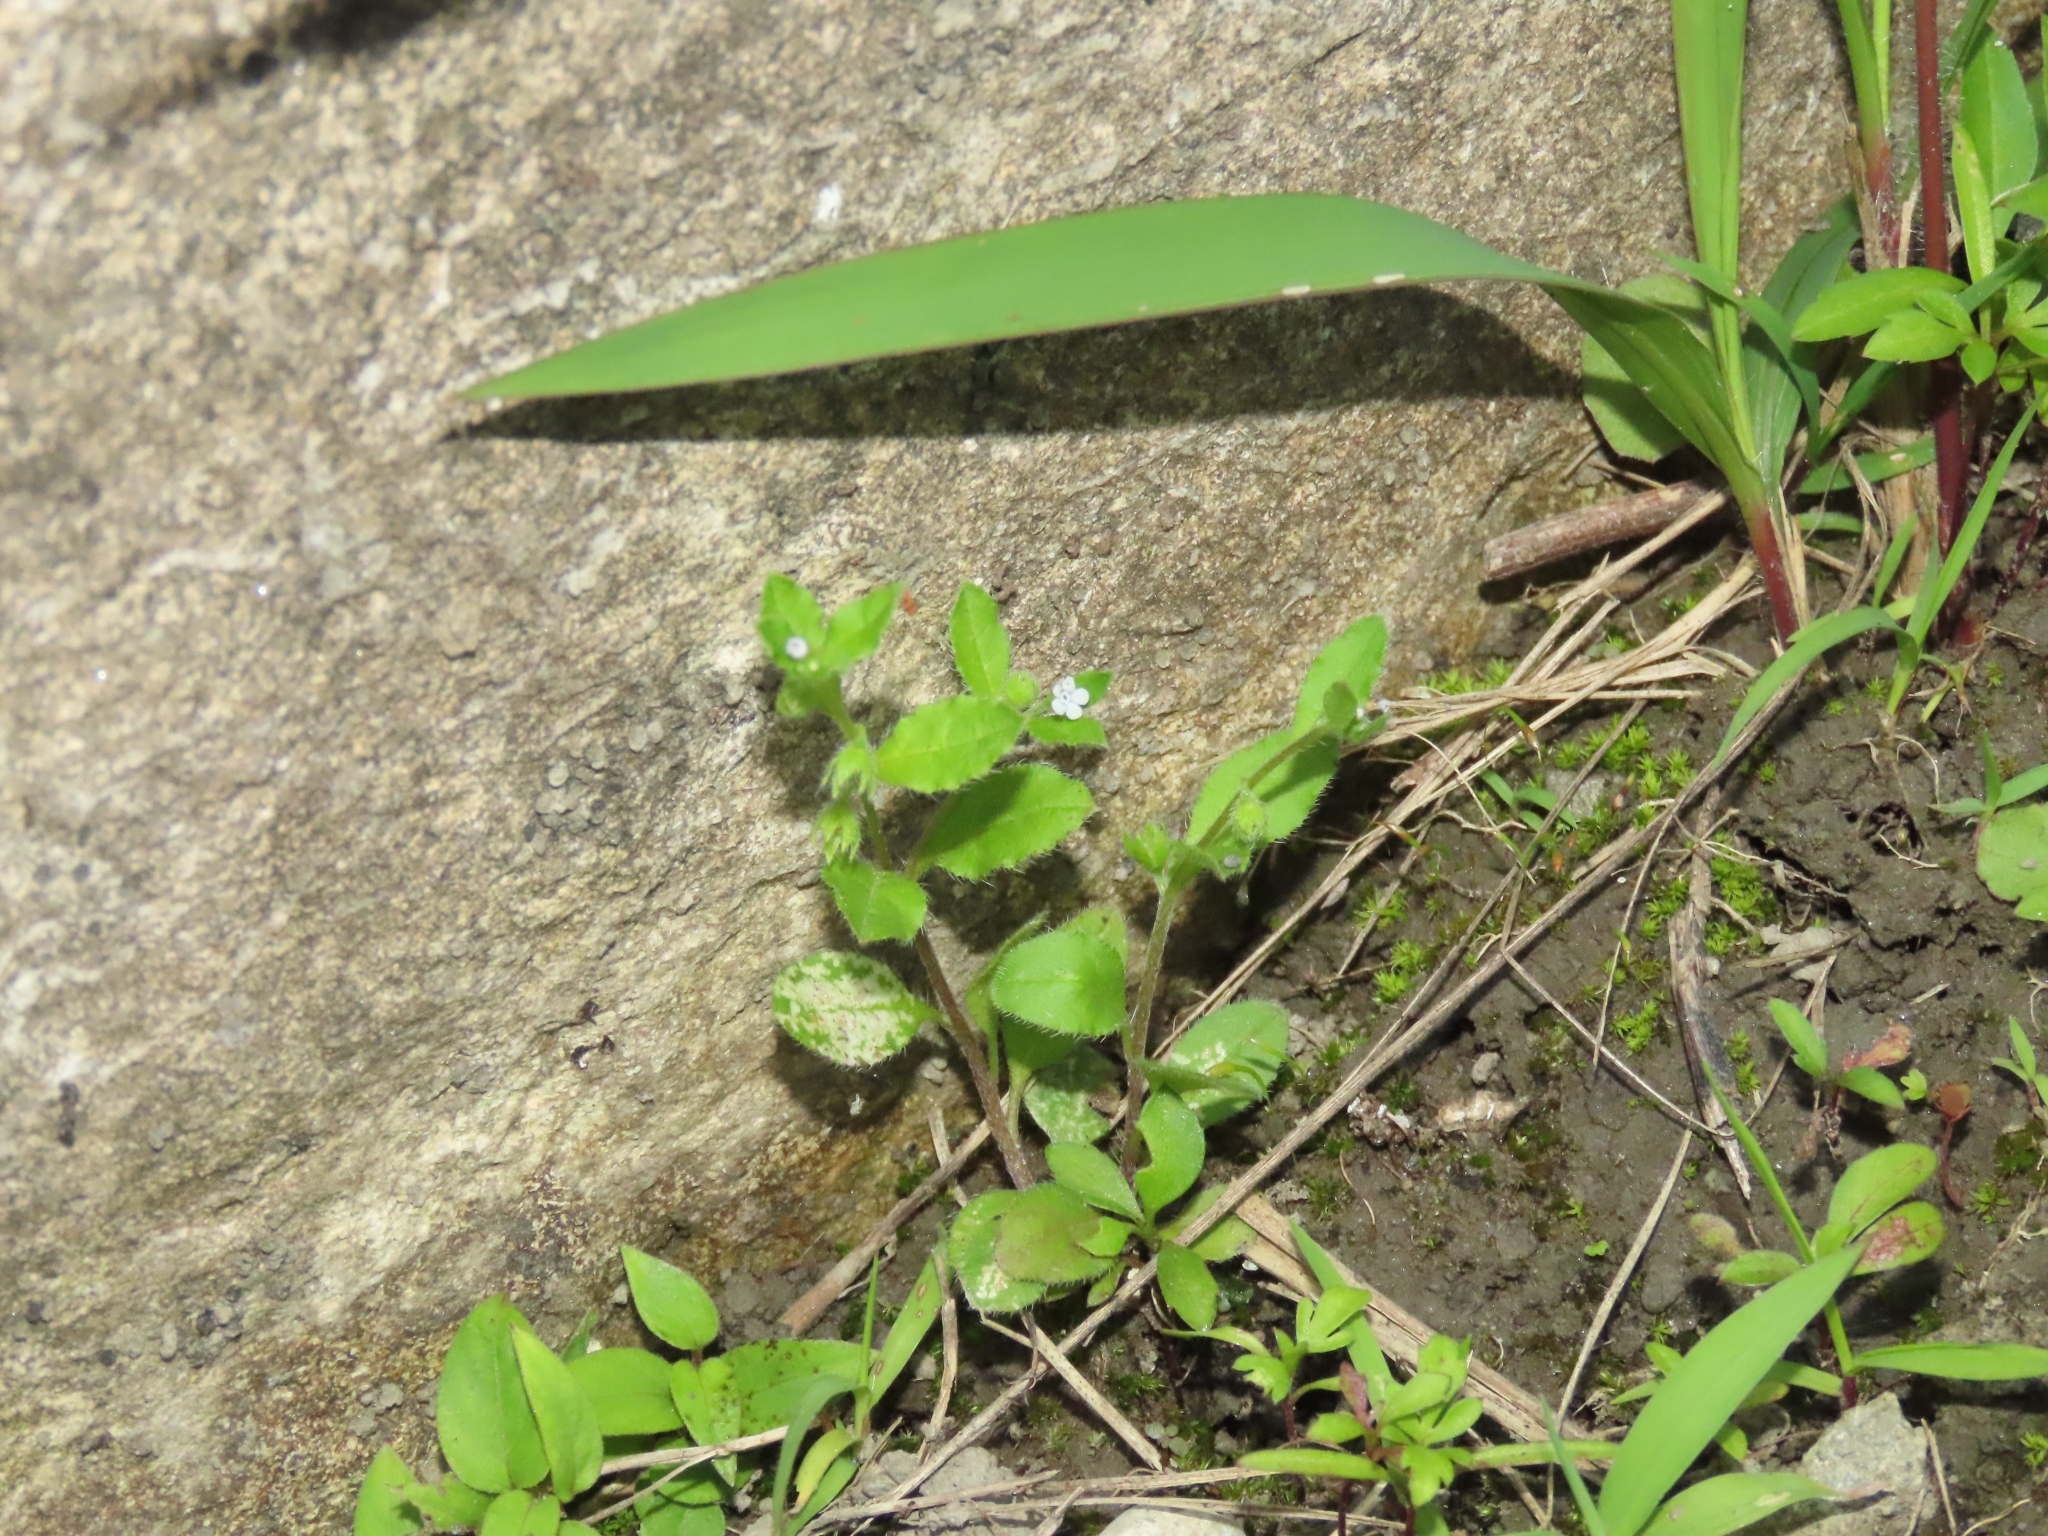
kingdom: Plantae
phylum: Tracheophyta
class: Magnoliopsida
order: Boraginales
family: Boraginaceae
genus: Bothriospermum
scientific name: Bothriospermum zeylanicum
